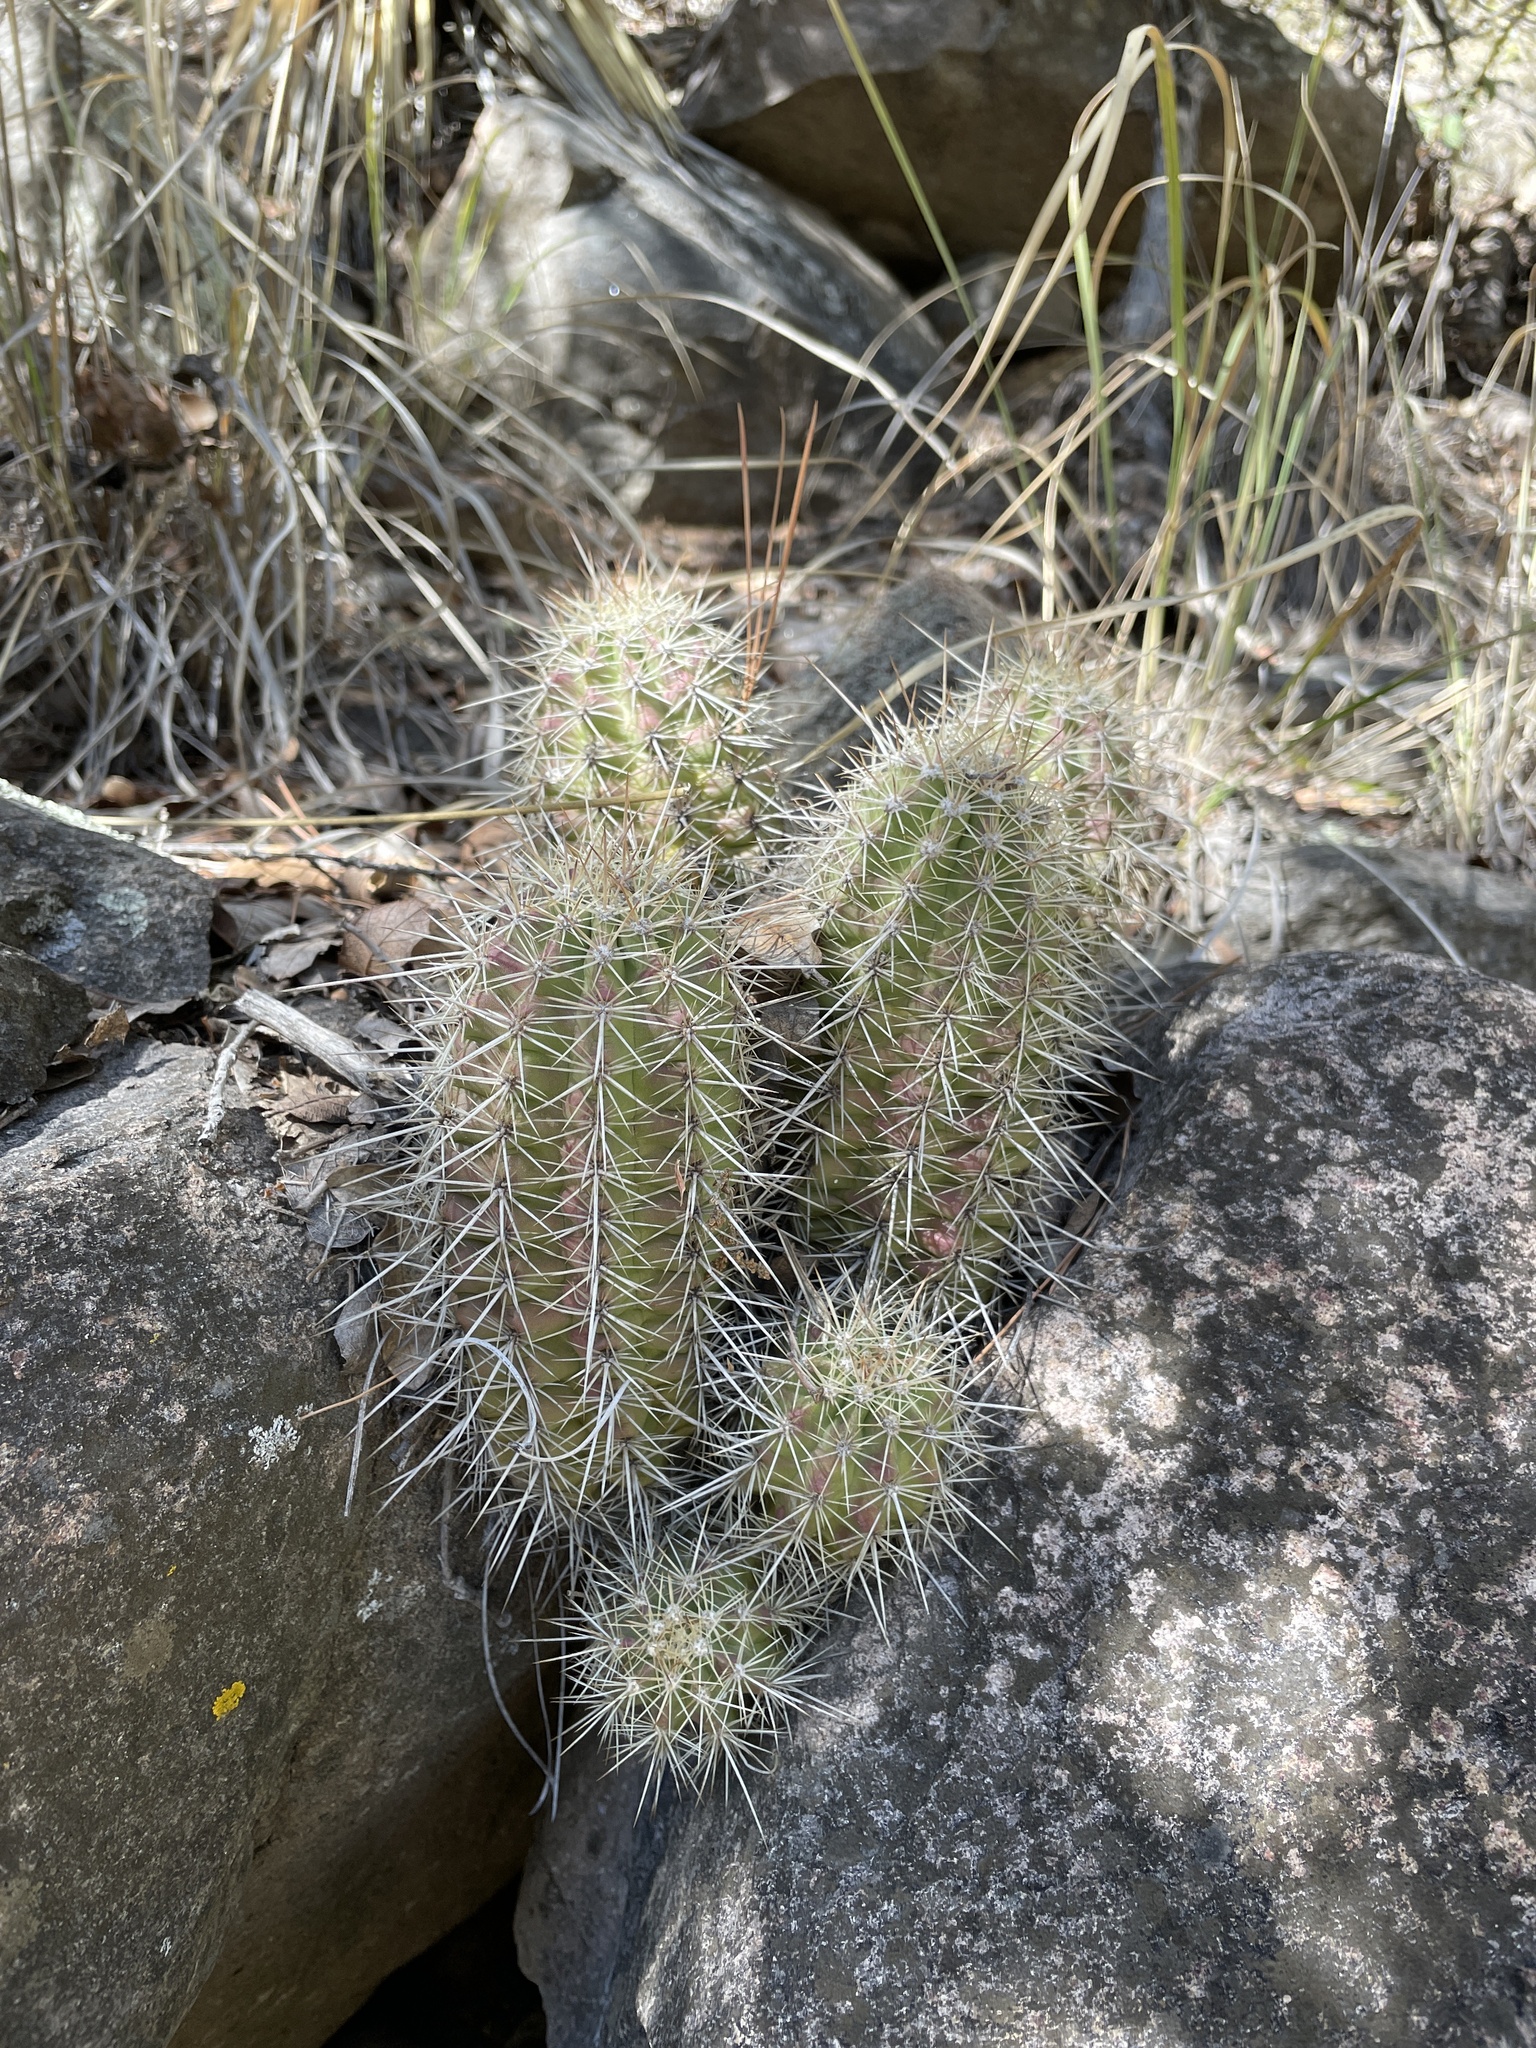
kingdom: Plantae
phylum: Tracheophyta
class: Magnoliopsida
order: Caryophyllales
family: Cactaceae
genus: Echinocereus
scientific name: Echinocereus coccineus
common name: Scarlet hedgehog cactus
